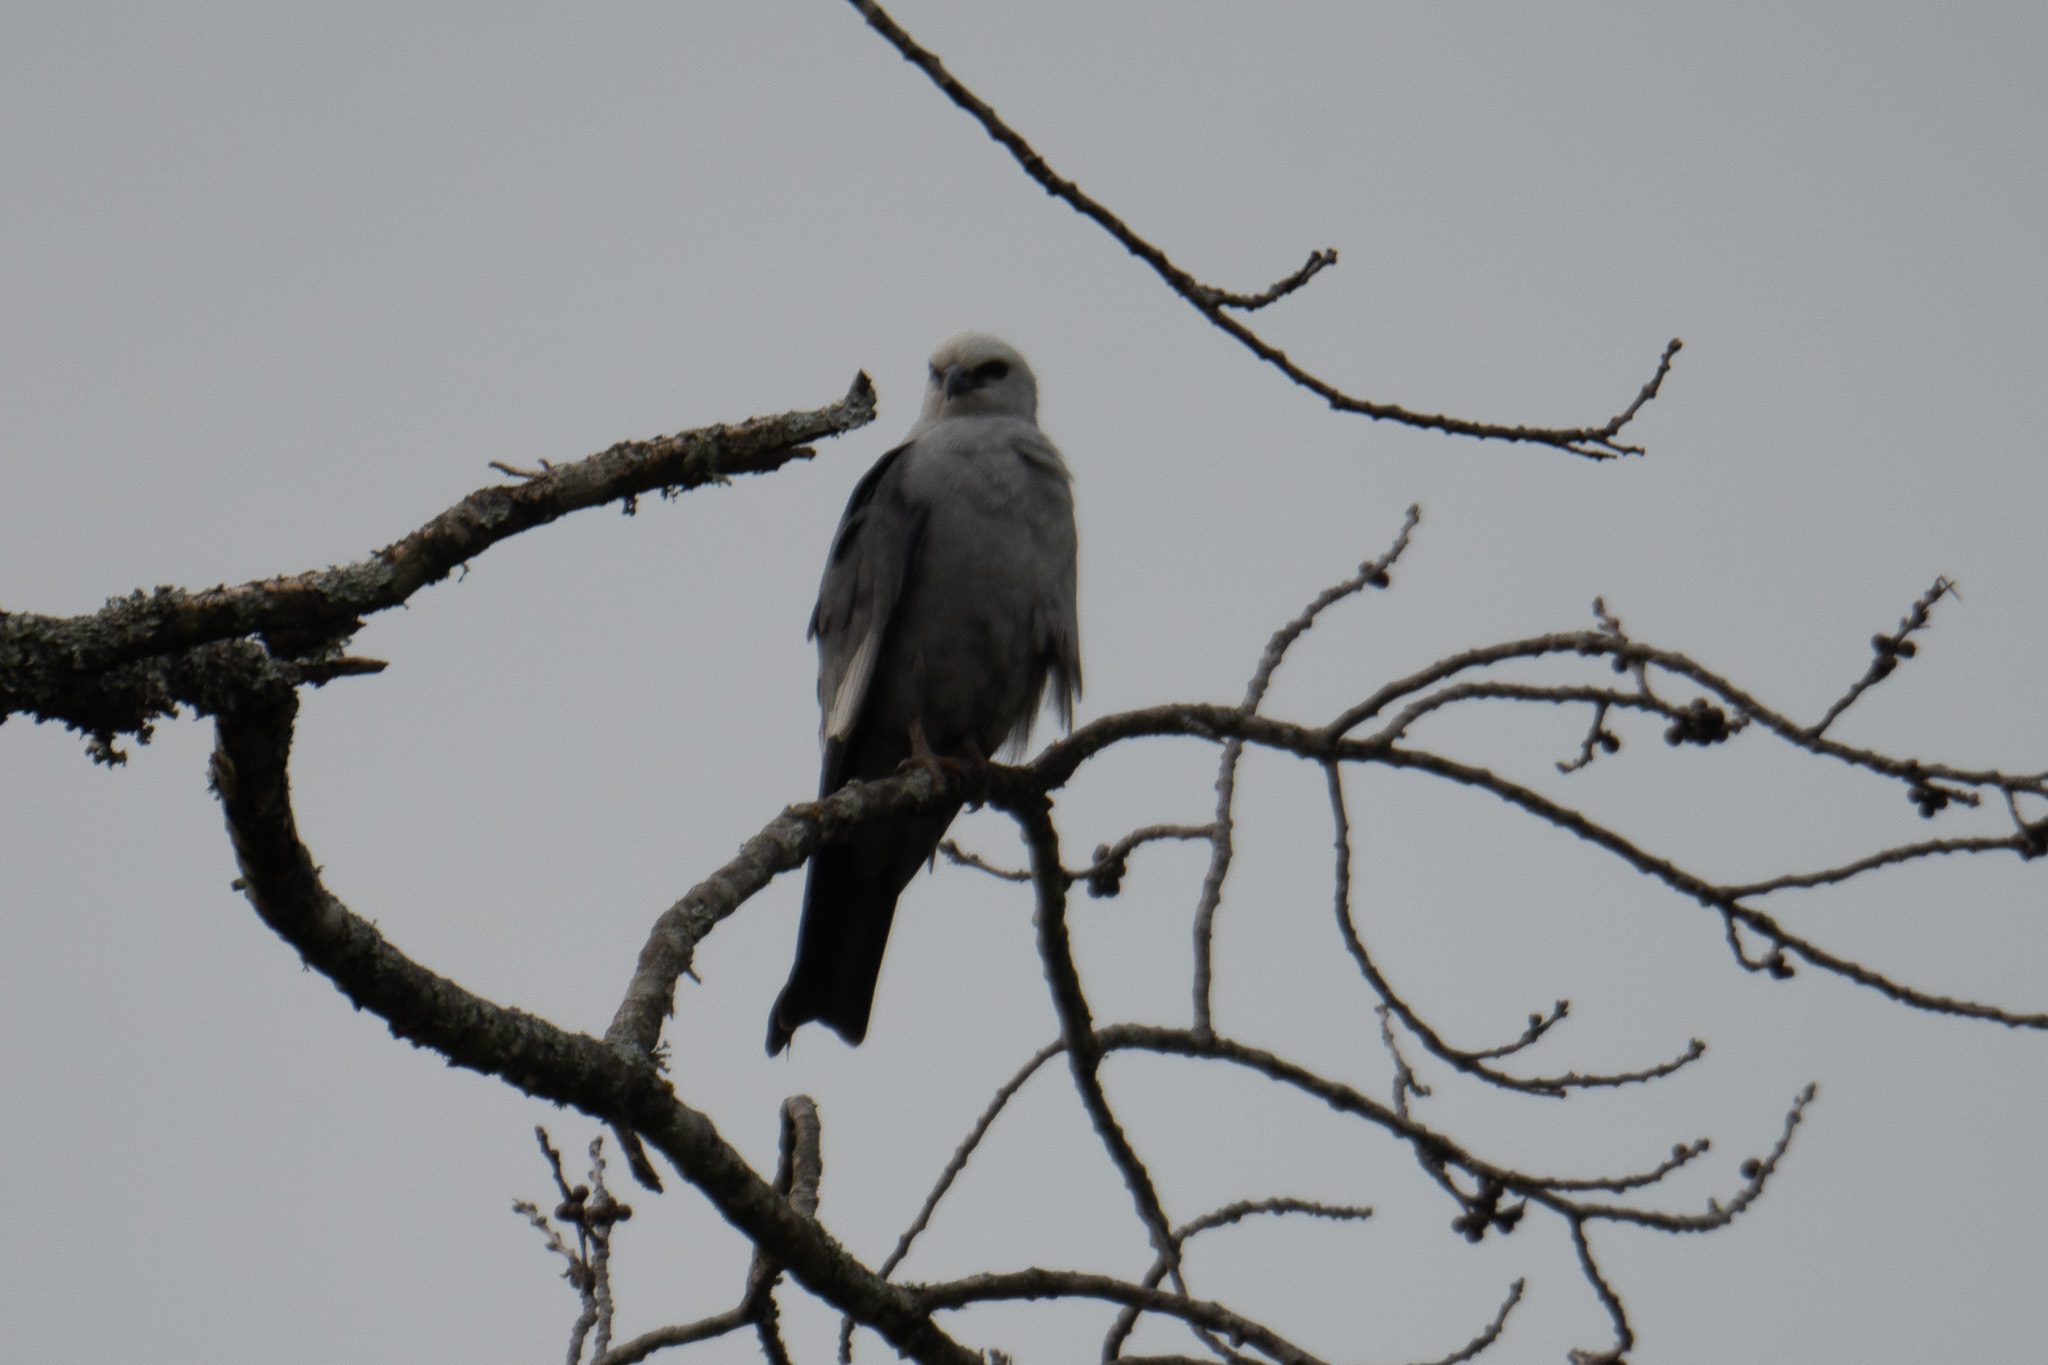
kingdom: Animalia
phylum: Chordata
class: Aves
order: Accipitriformes
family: Accipitridae
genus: Ictinia
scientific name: Ictinia mississippiensis
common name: Mississippi kite
